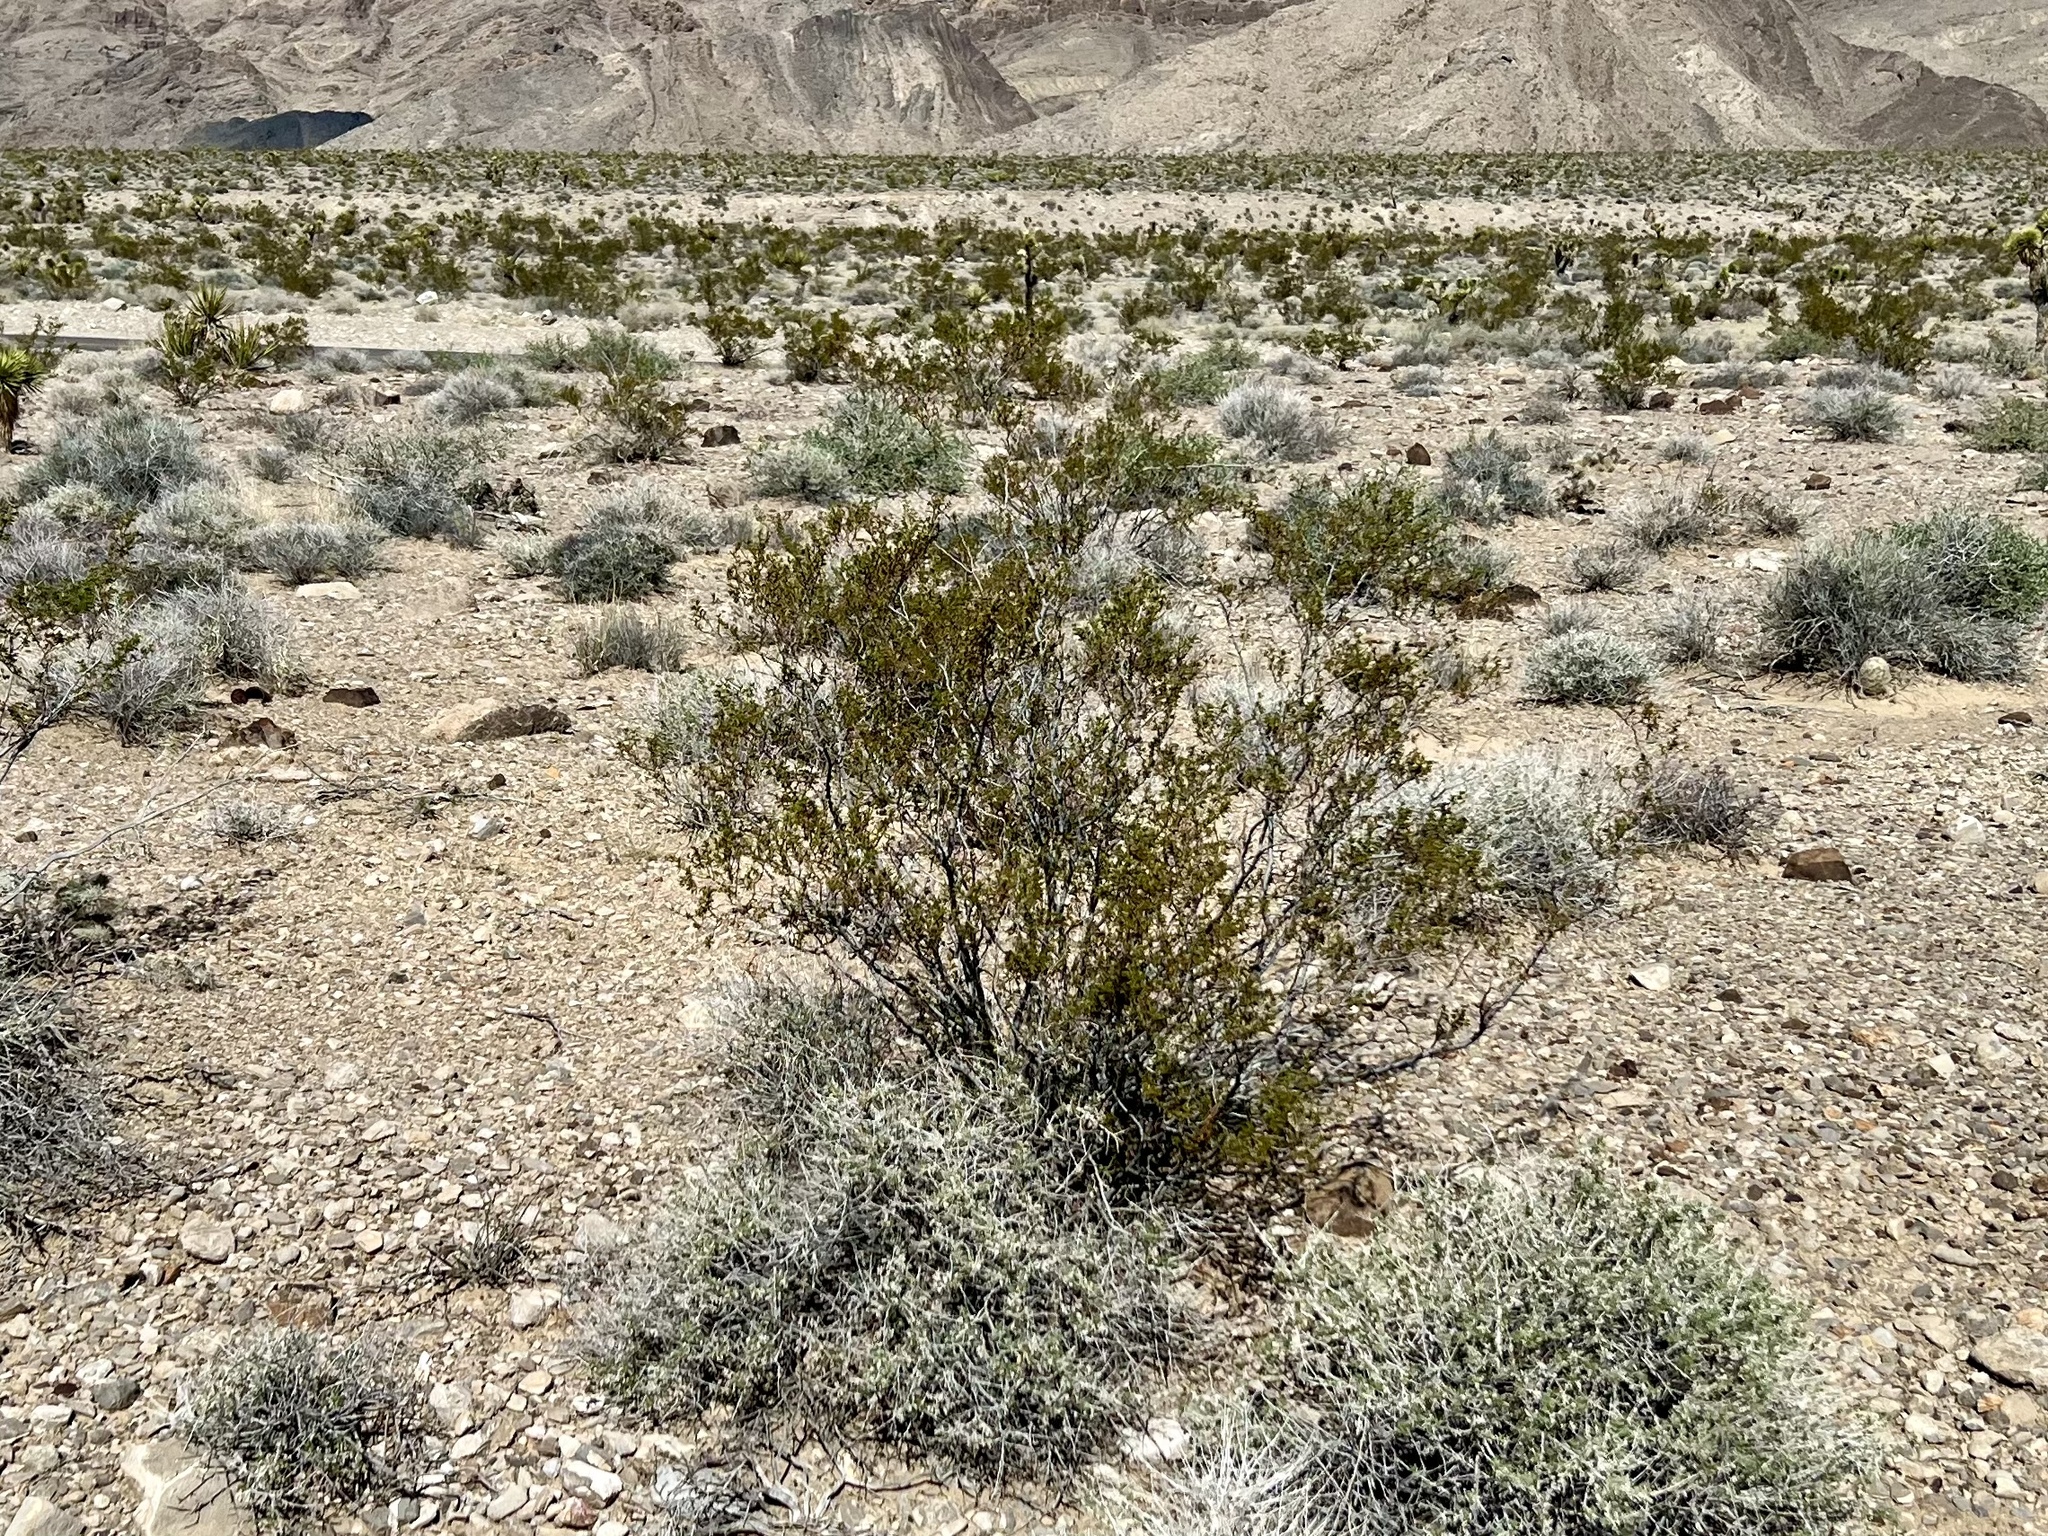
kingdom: Plantae
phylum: Tracheophyta
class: Magnoliopsida
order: Zygophyllales
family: Zygophyllaceae
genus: Larrea
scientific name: Larrea tridentata
